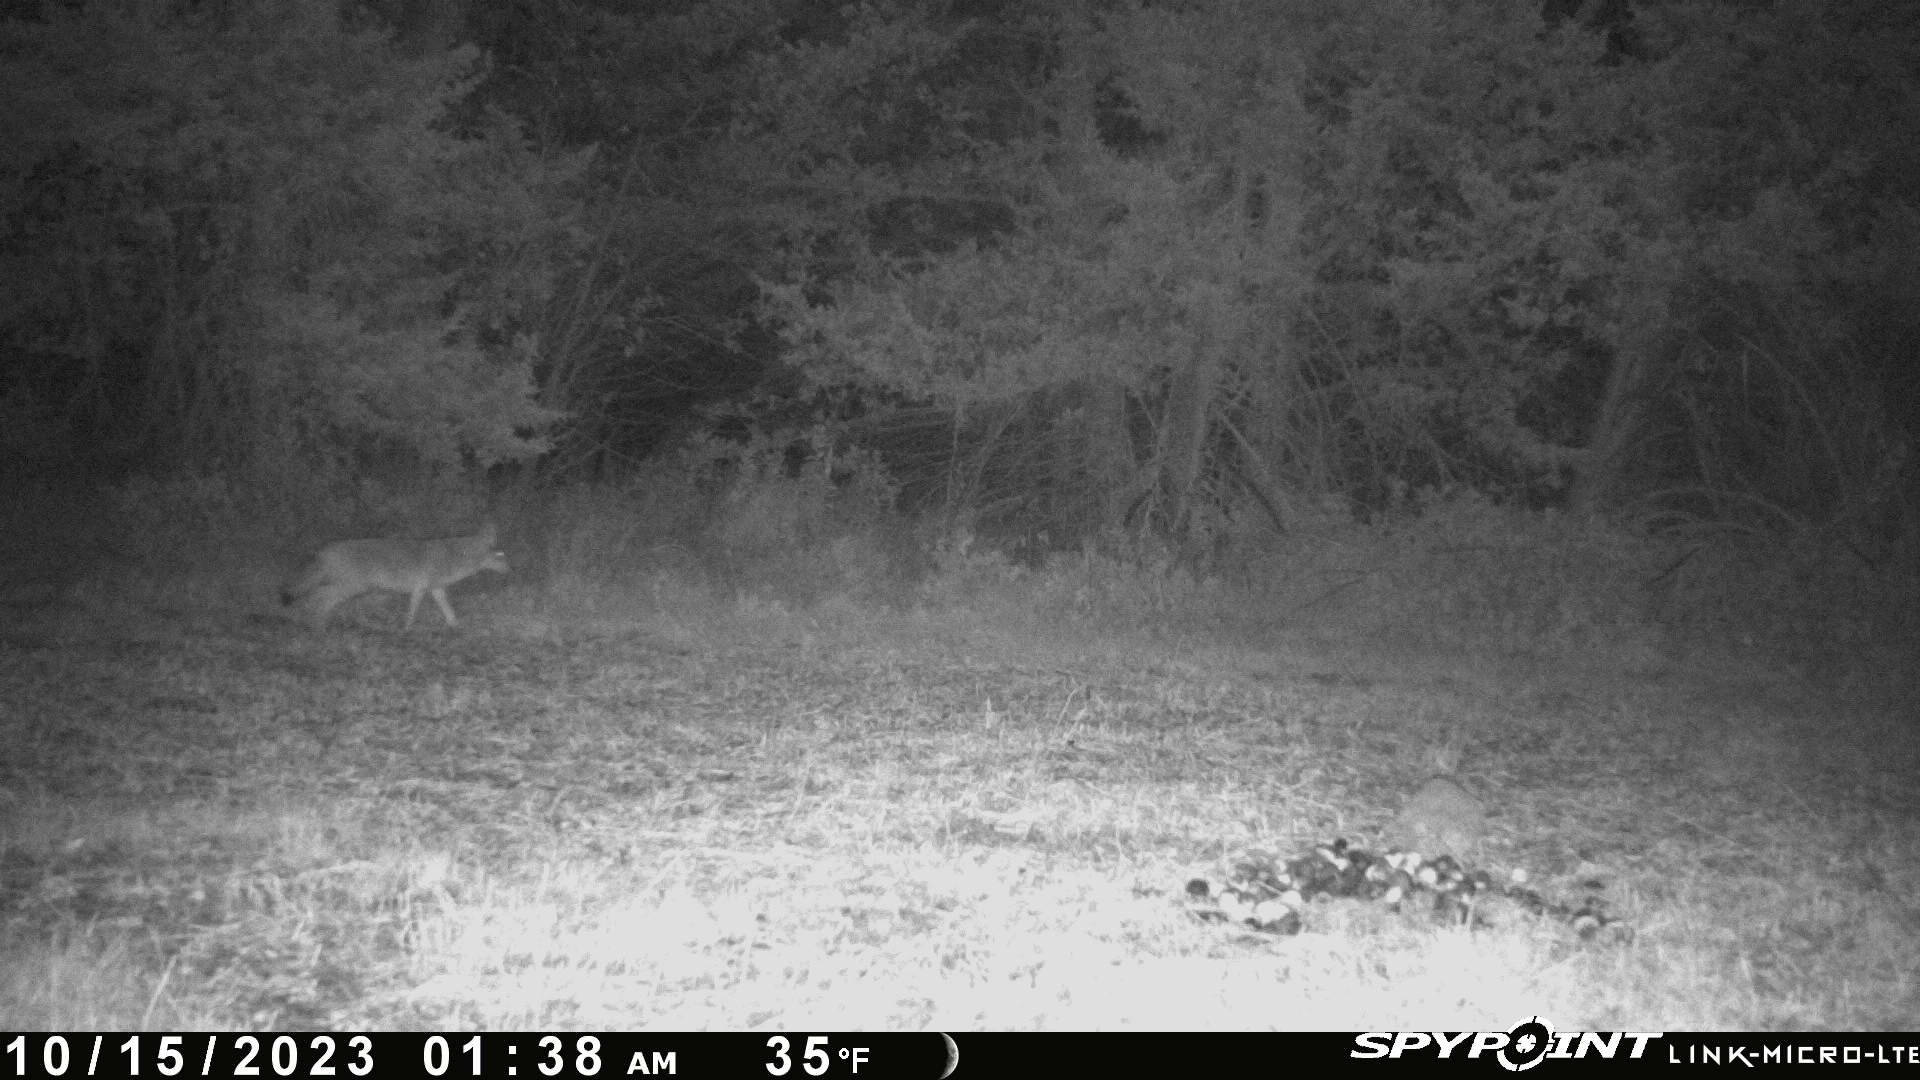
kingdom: Animalia
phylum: Chordata
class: Mammalia
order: Carnivora
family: Canidae
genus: Canis
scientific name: Canis latrans
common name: Coyote
